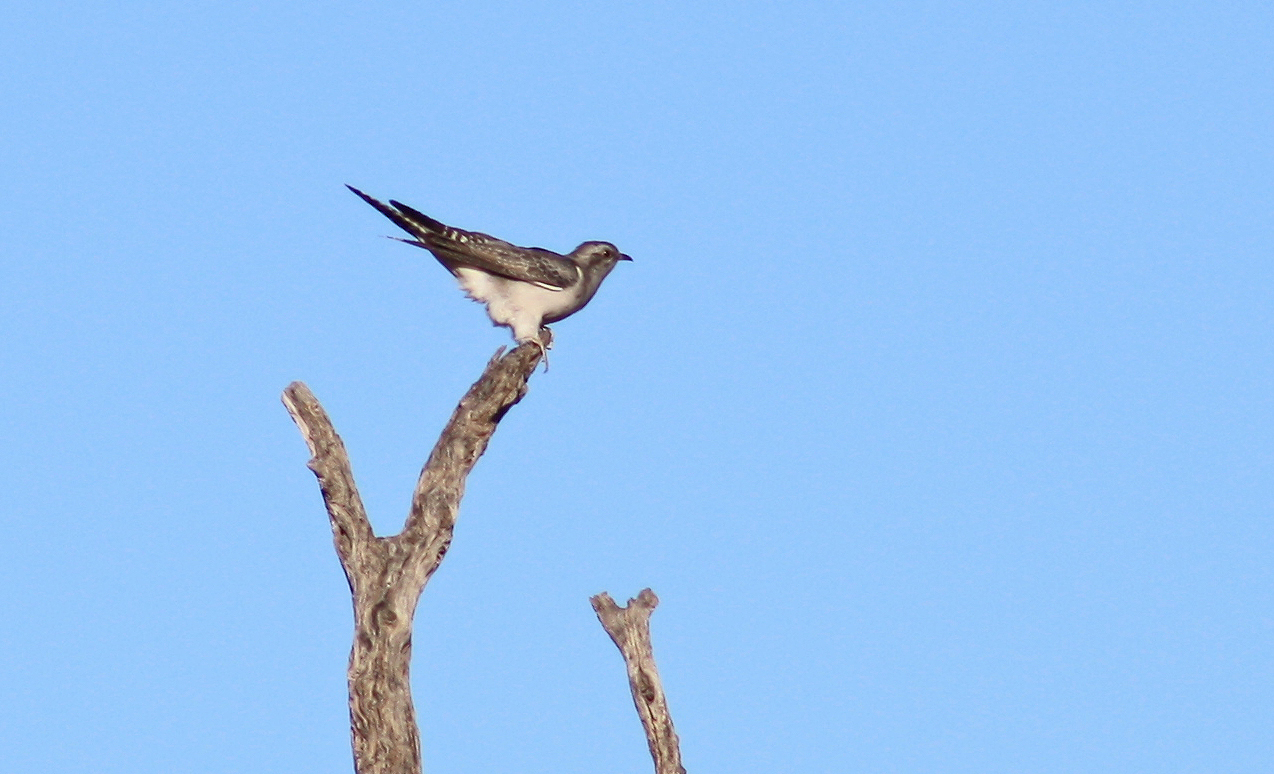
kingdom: Animalia
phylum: Chordata
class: Aves
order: Cuculiformes
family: Cuculidae
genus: Cuculus
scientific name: Cuculus pallidus
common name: Pallid cuckoo
